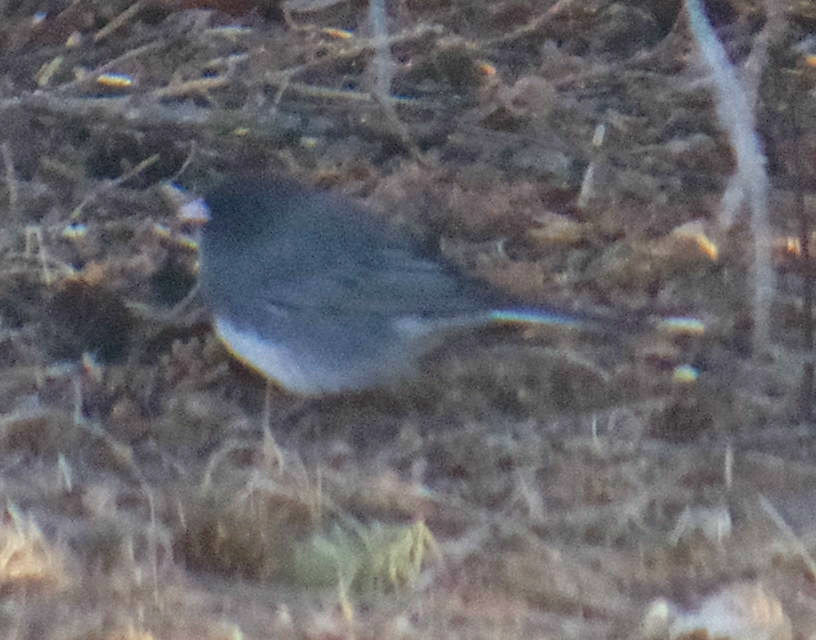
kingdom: Animalia
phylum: Chordata
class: Aves
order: Passeriformes
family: Passerellidae
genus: Junco
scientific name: Junco hyemalis
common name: Dark-eyed junco
